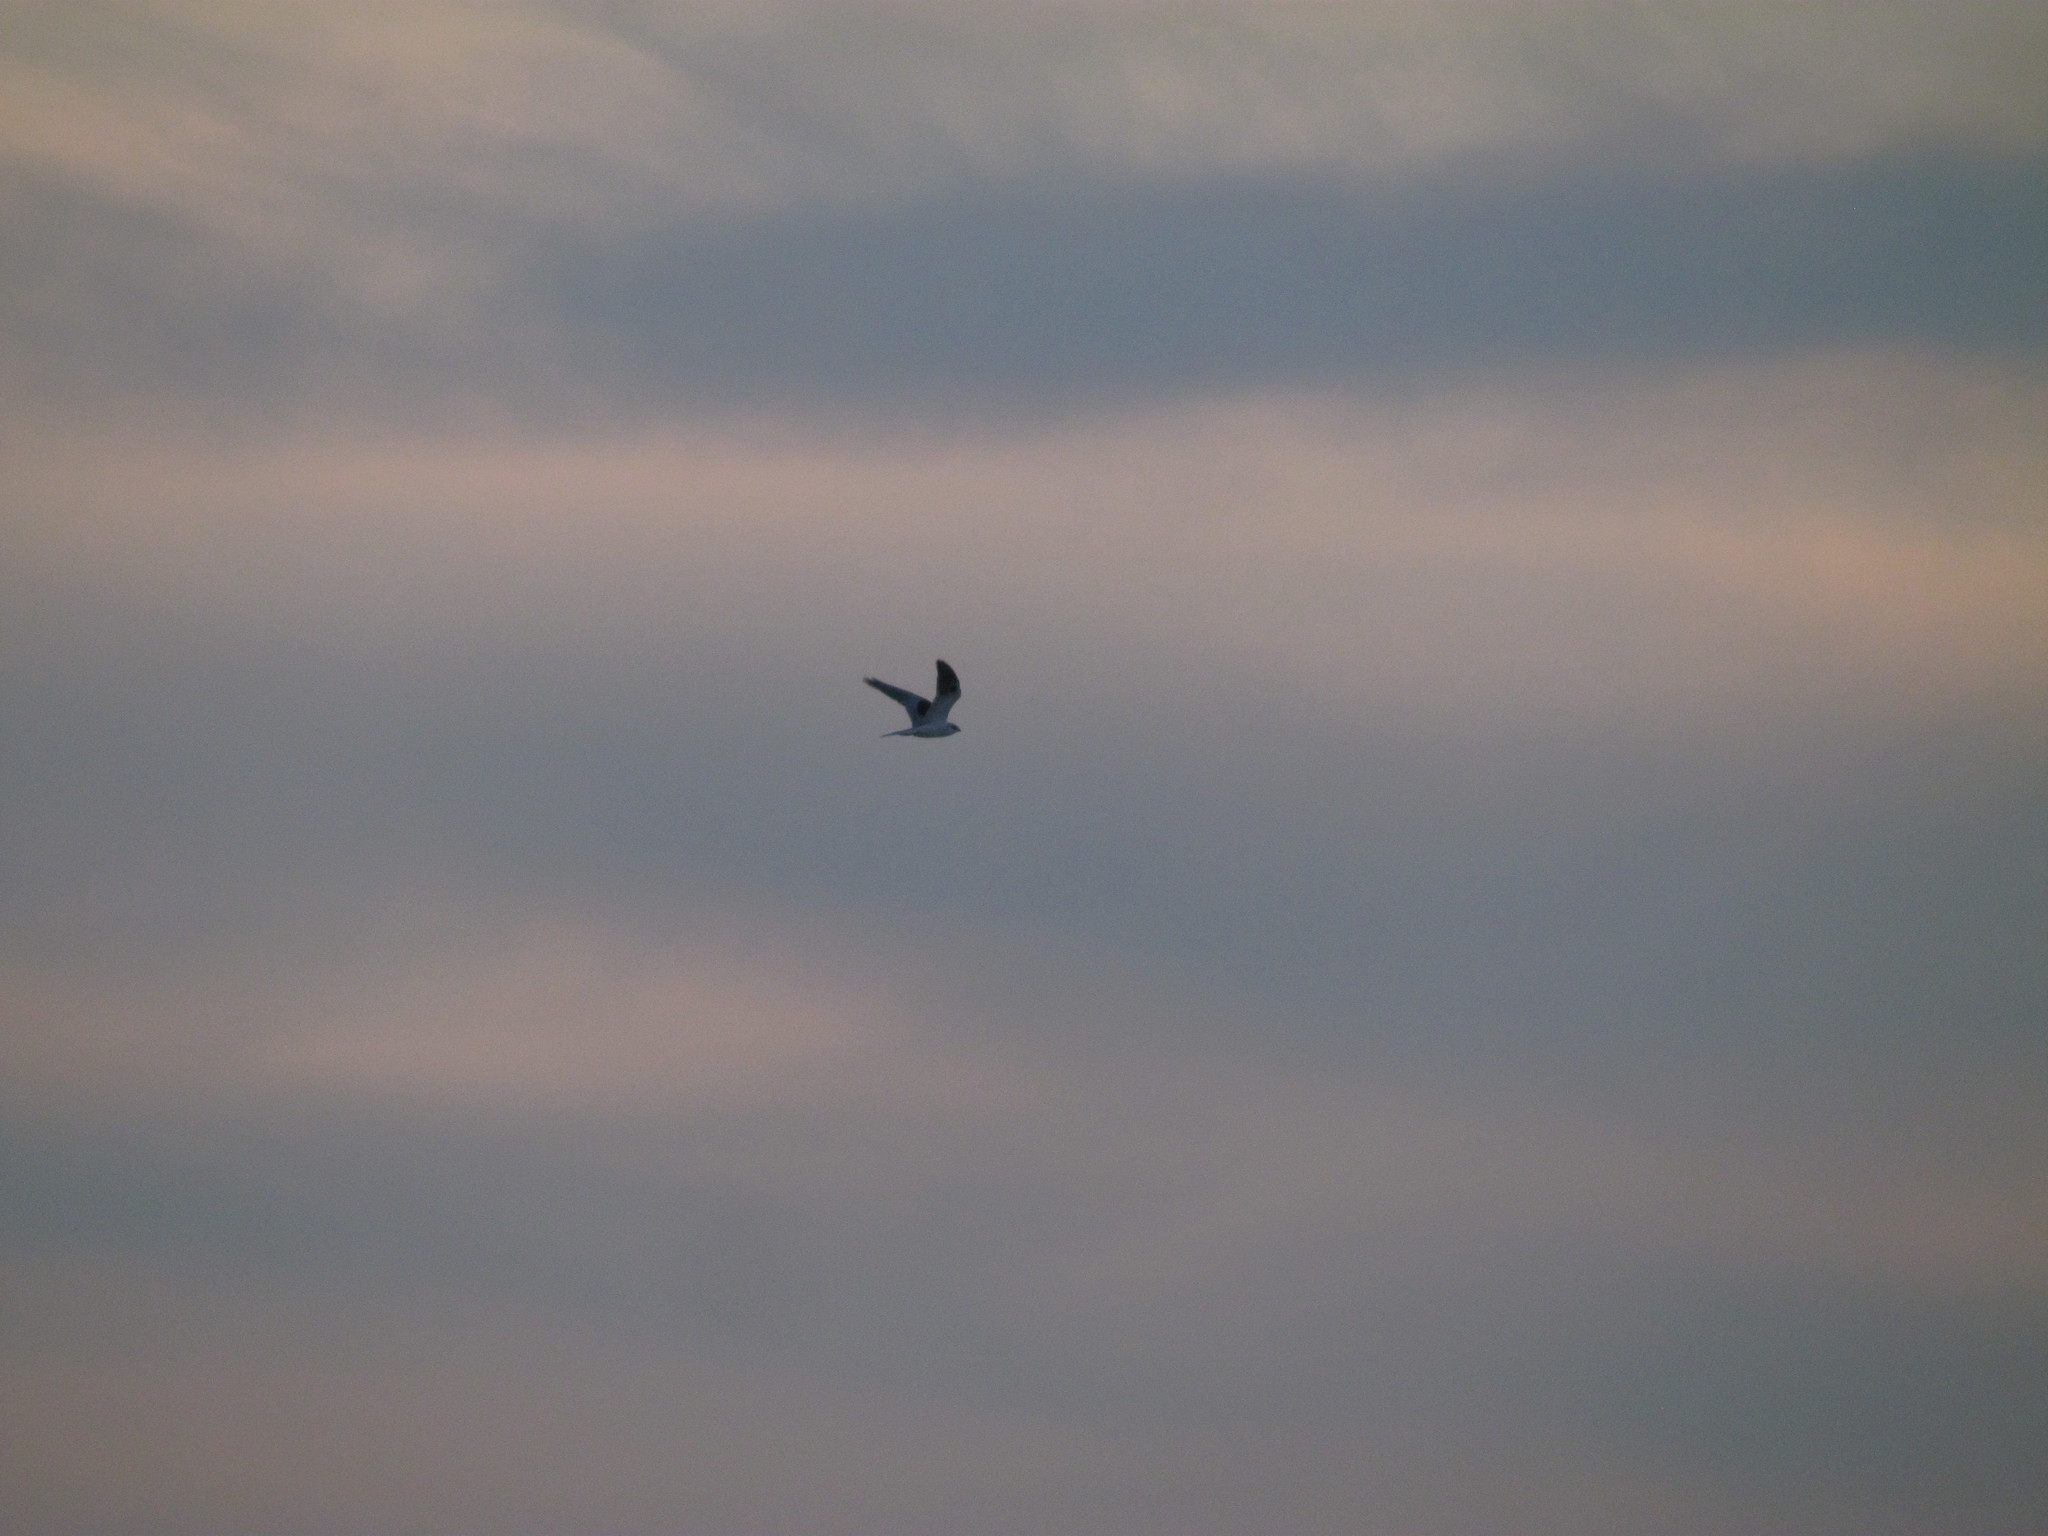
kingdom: Animalia
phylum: Chordata
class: Aves
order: Accipitriformes
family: Accipitridae
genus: Elanus
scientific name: Elanus leucurus
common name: White-tailed kite
